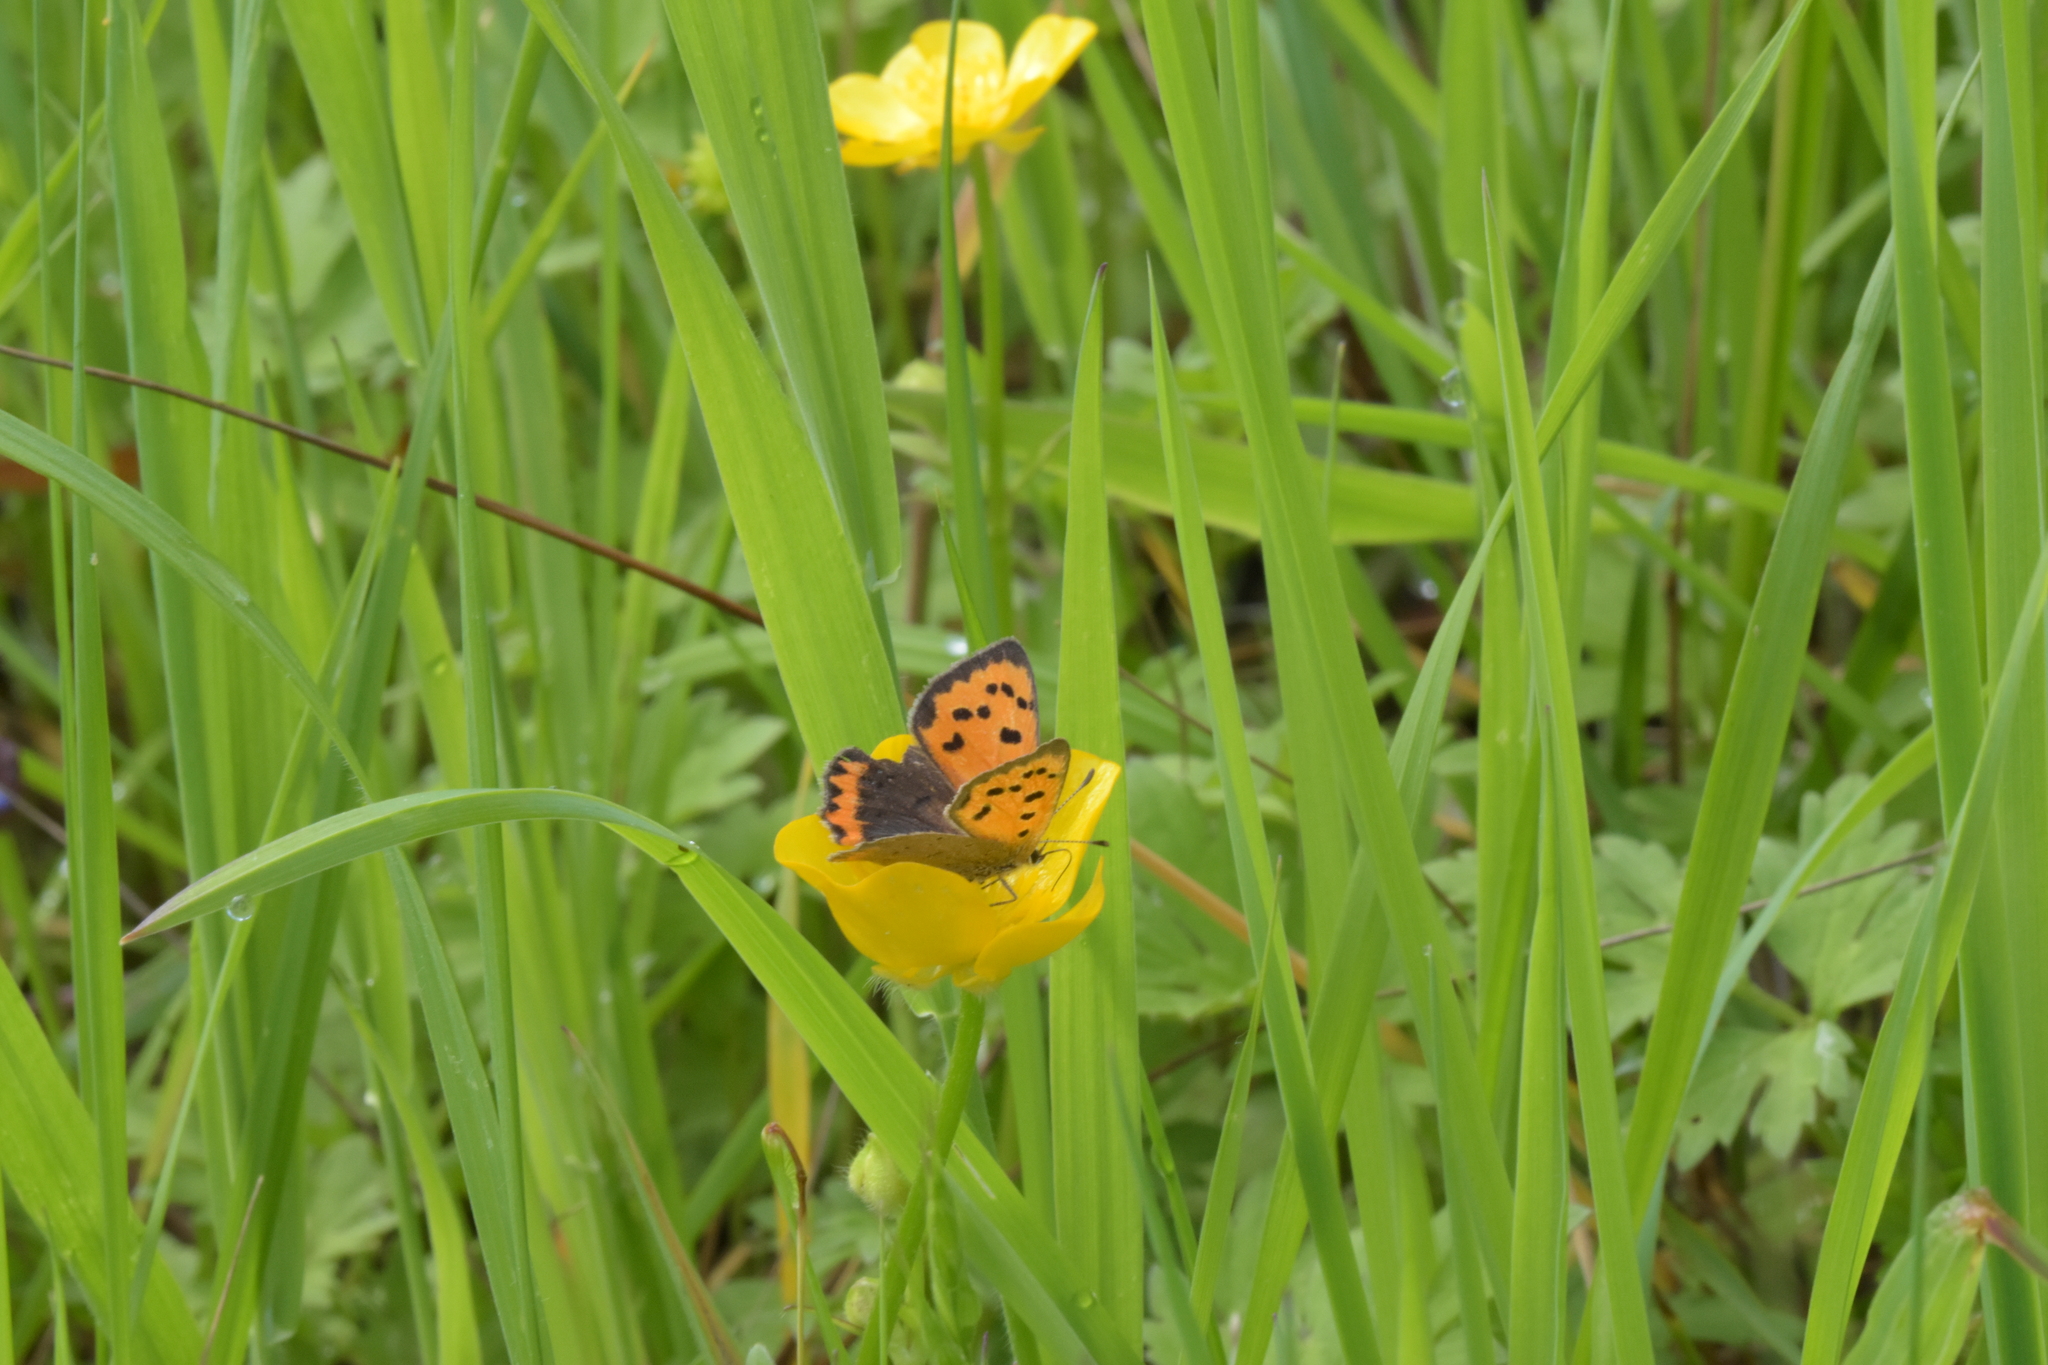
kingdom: Animalia
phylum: Arthropoda
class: Insecta
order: Lepidoptera
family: Lycaenidae
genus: Lycaena
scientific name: Lycaena phlaeas
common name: Small copper
